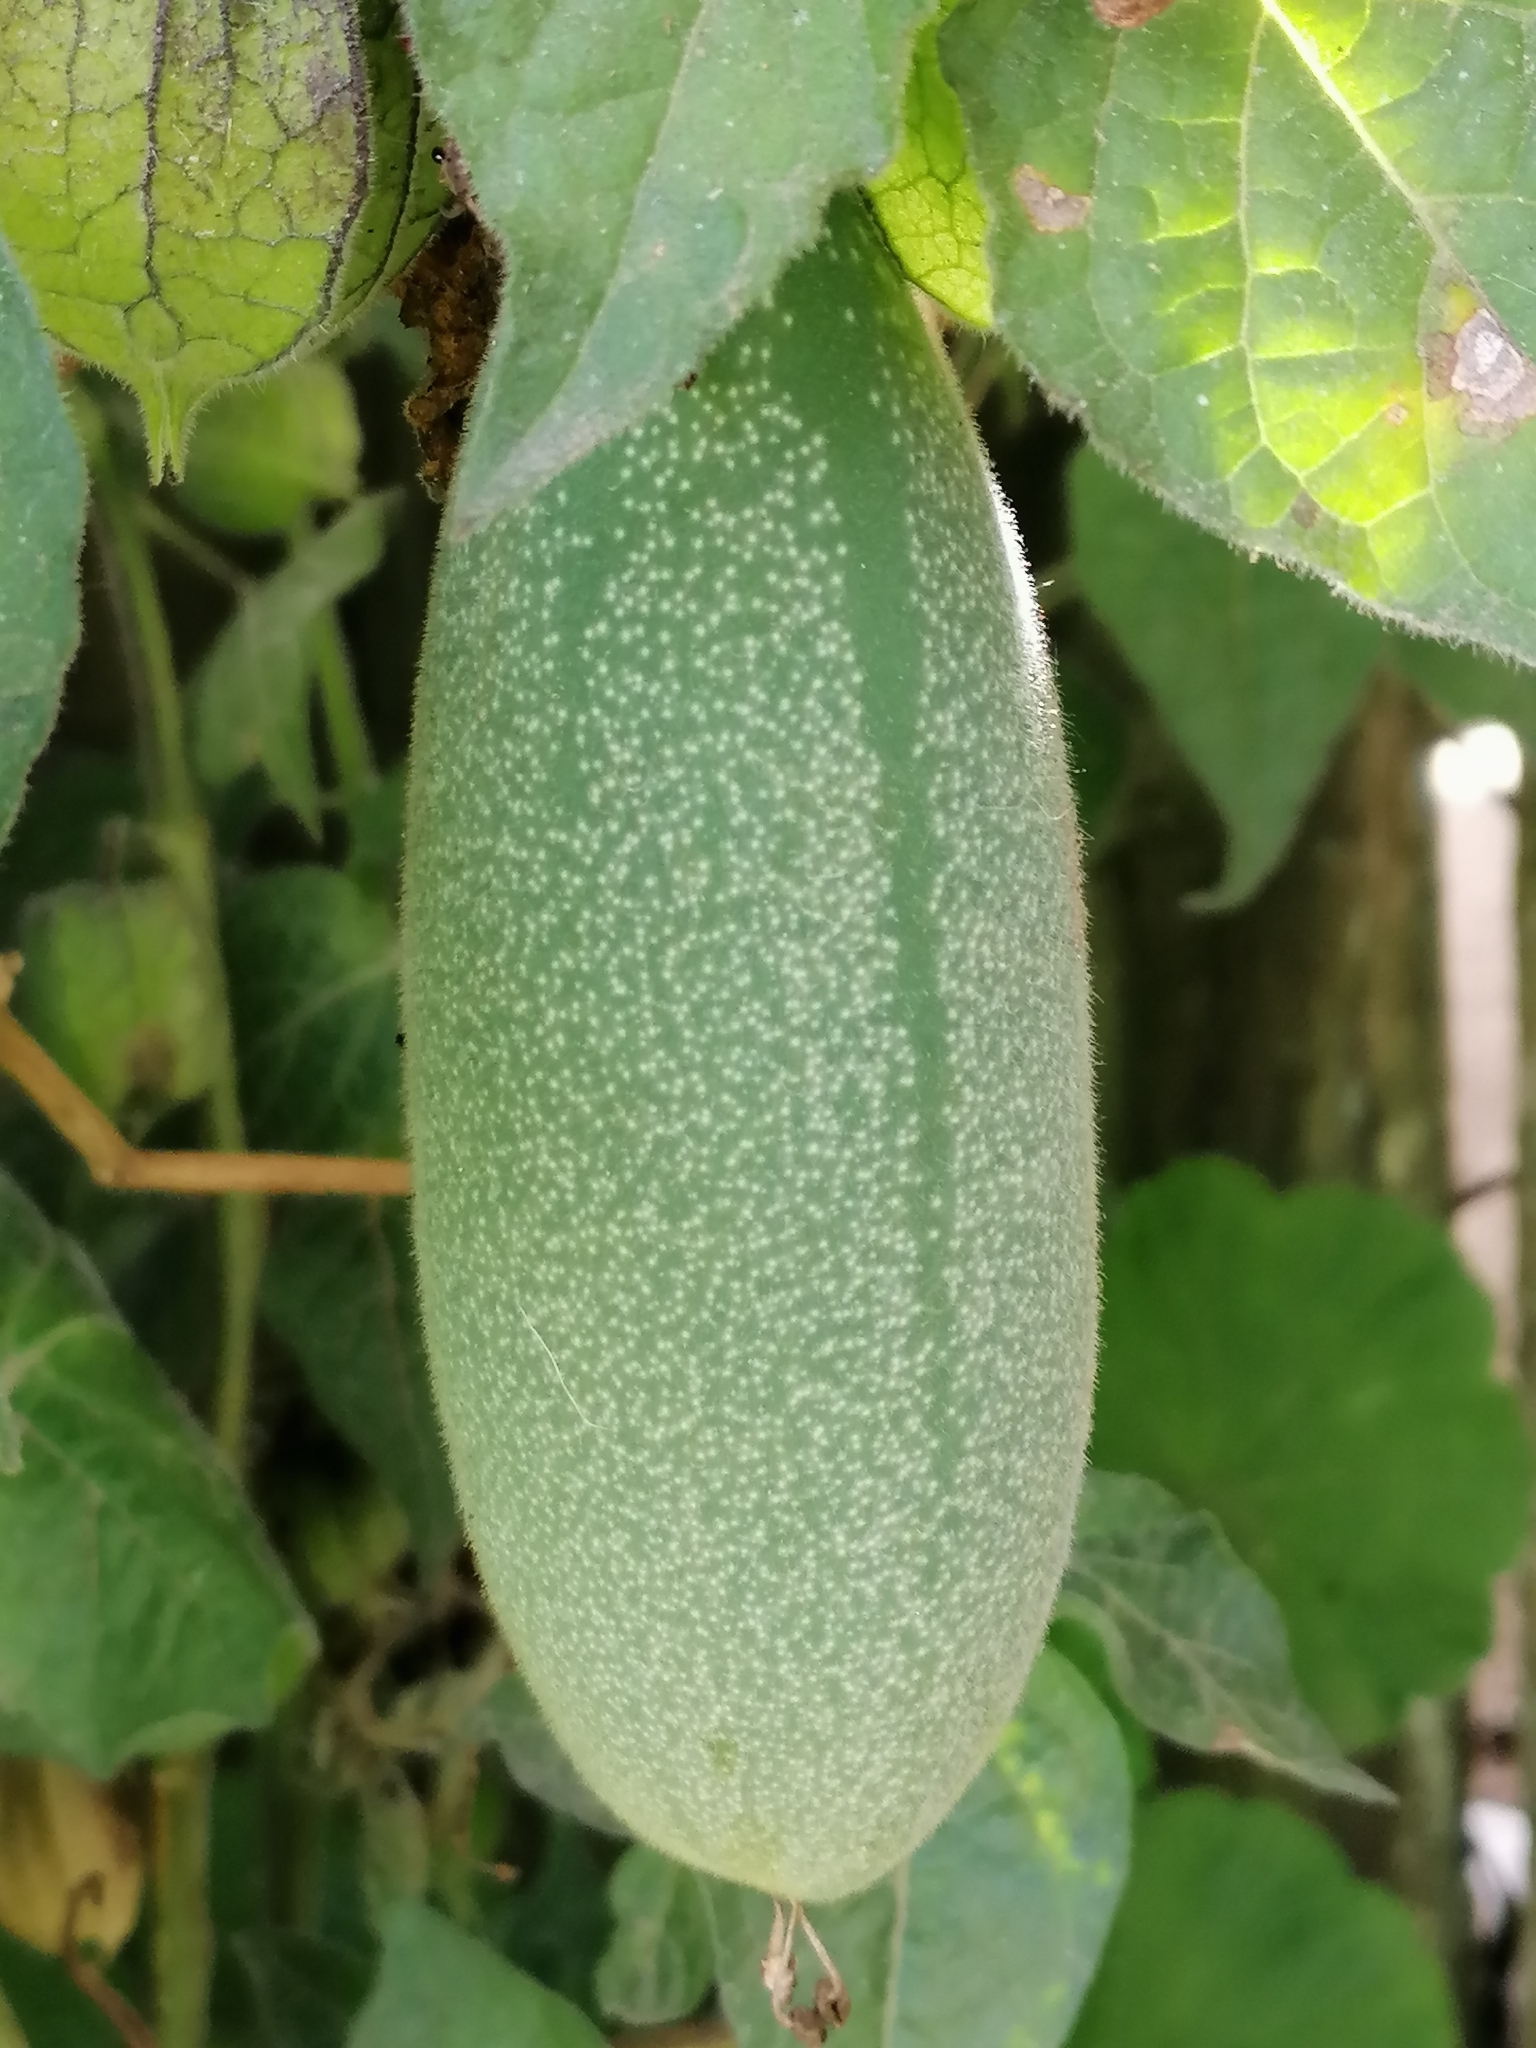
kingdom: Plantae
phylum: Tracheophyta
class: Magnoliopsida
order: Malpighiales
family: Passifloraceae
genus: Passiflora
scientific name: Passiflora tarminiana
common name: Banana poka
